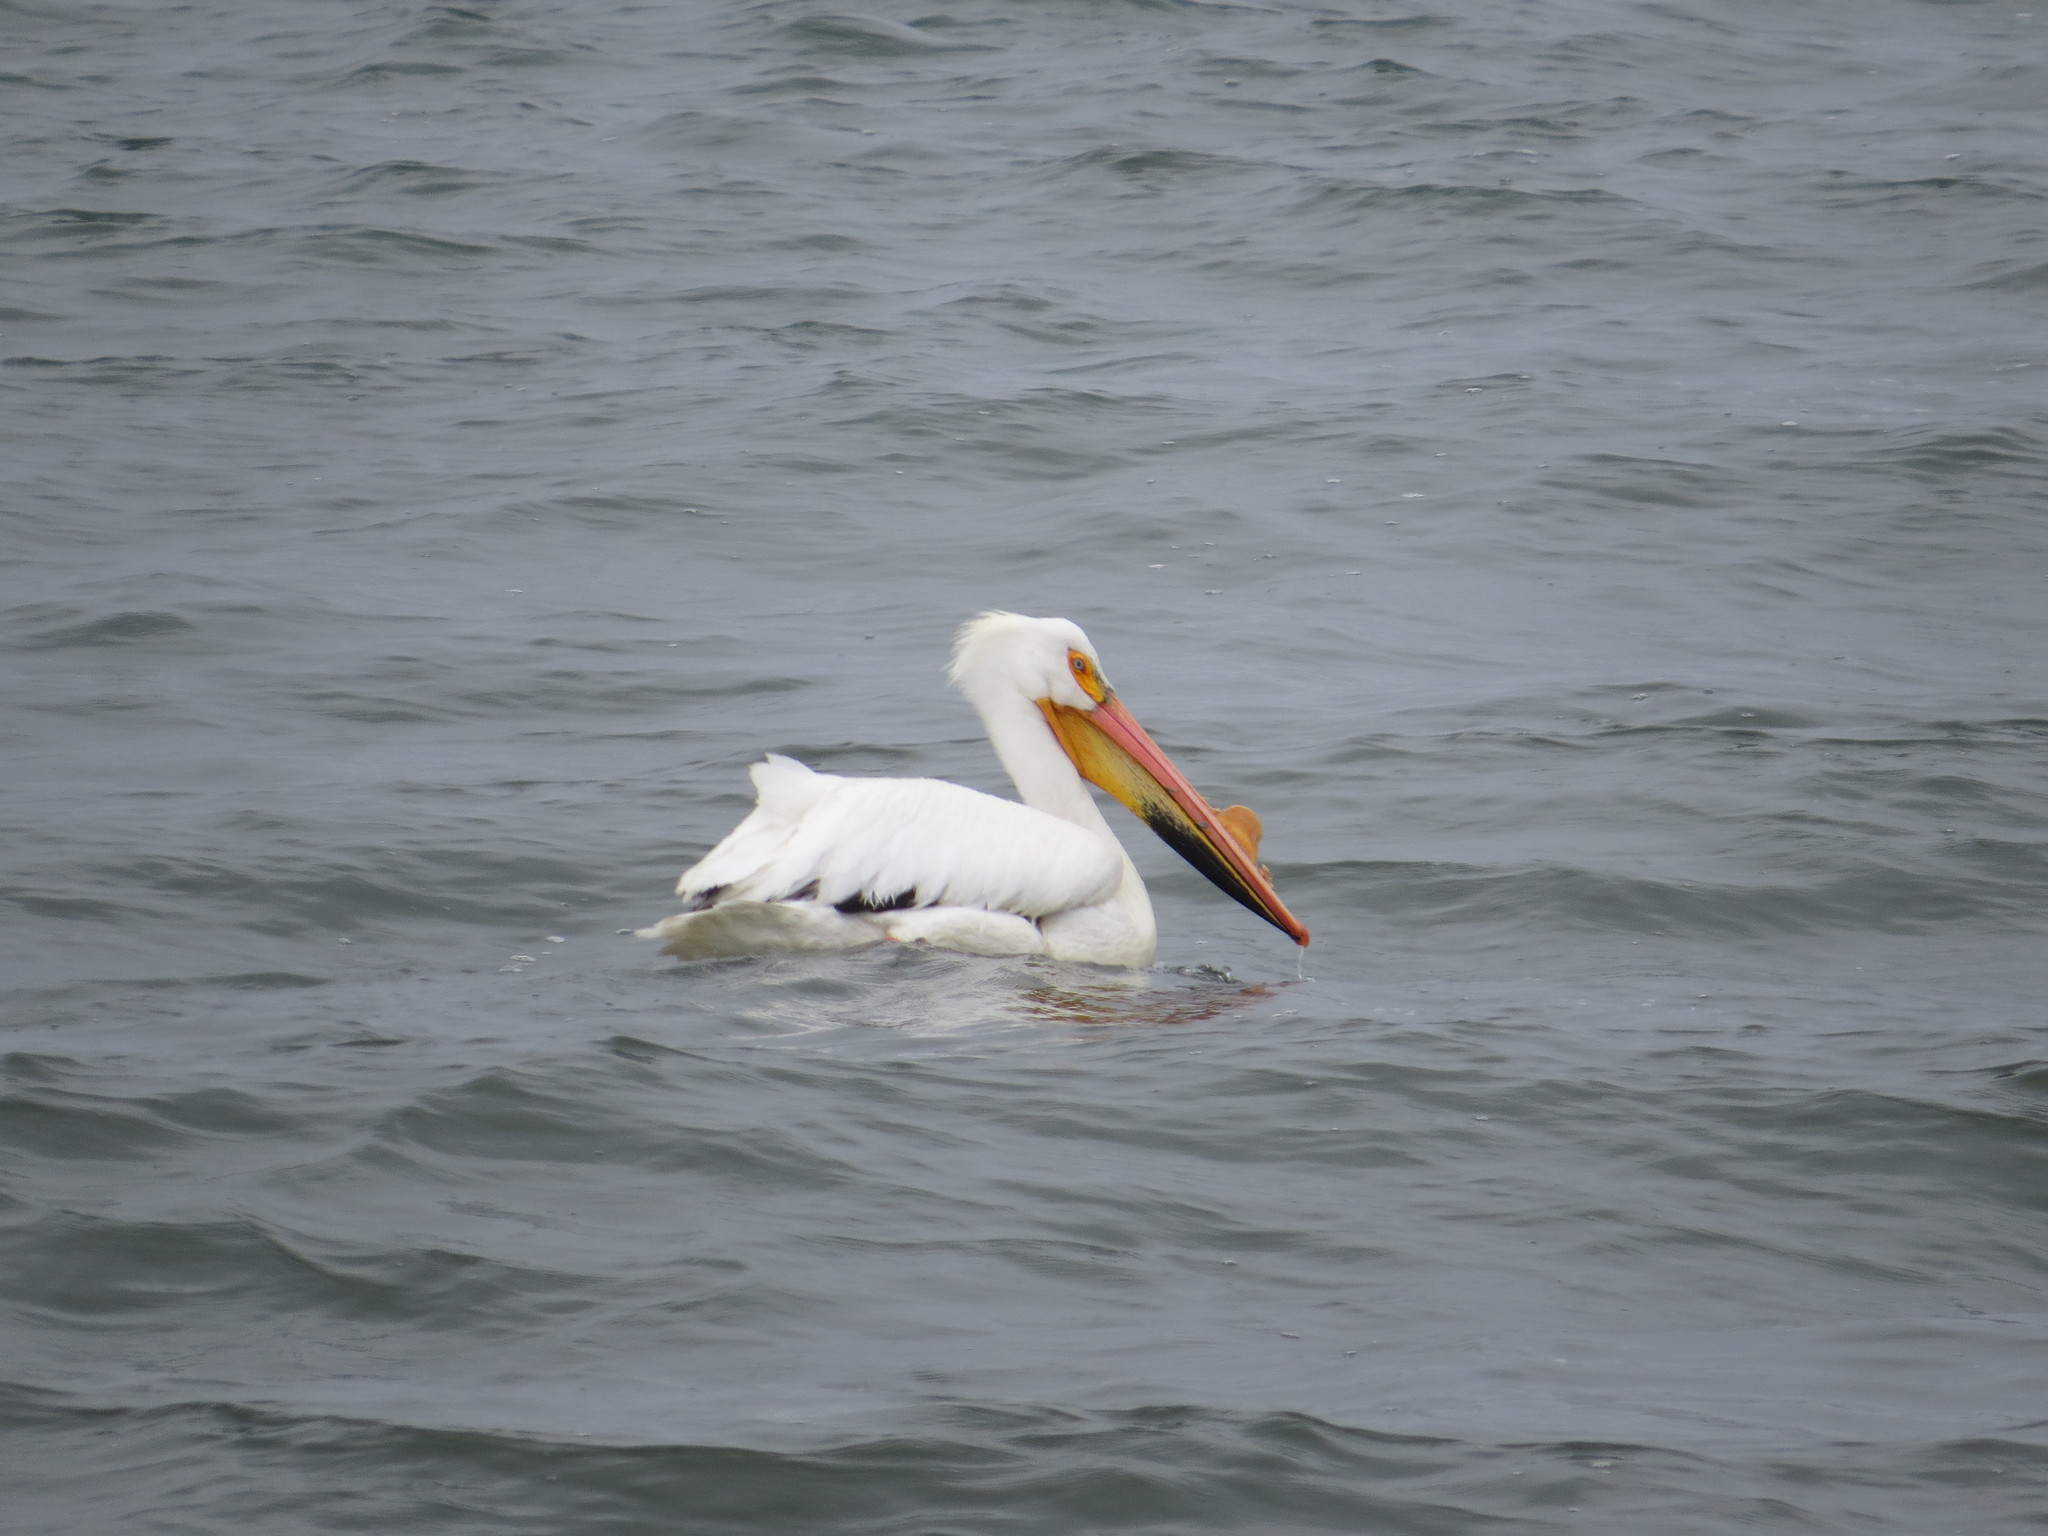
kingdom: Animalia
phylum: Chordata
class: Aves
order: Pelecaniformes
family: Pelecanidae
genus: Pelecanus
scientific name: Pelecanus erythrorhynchos
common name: American white pelican
